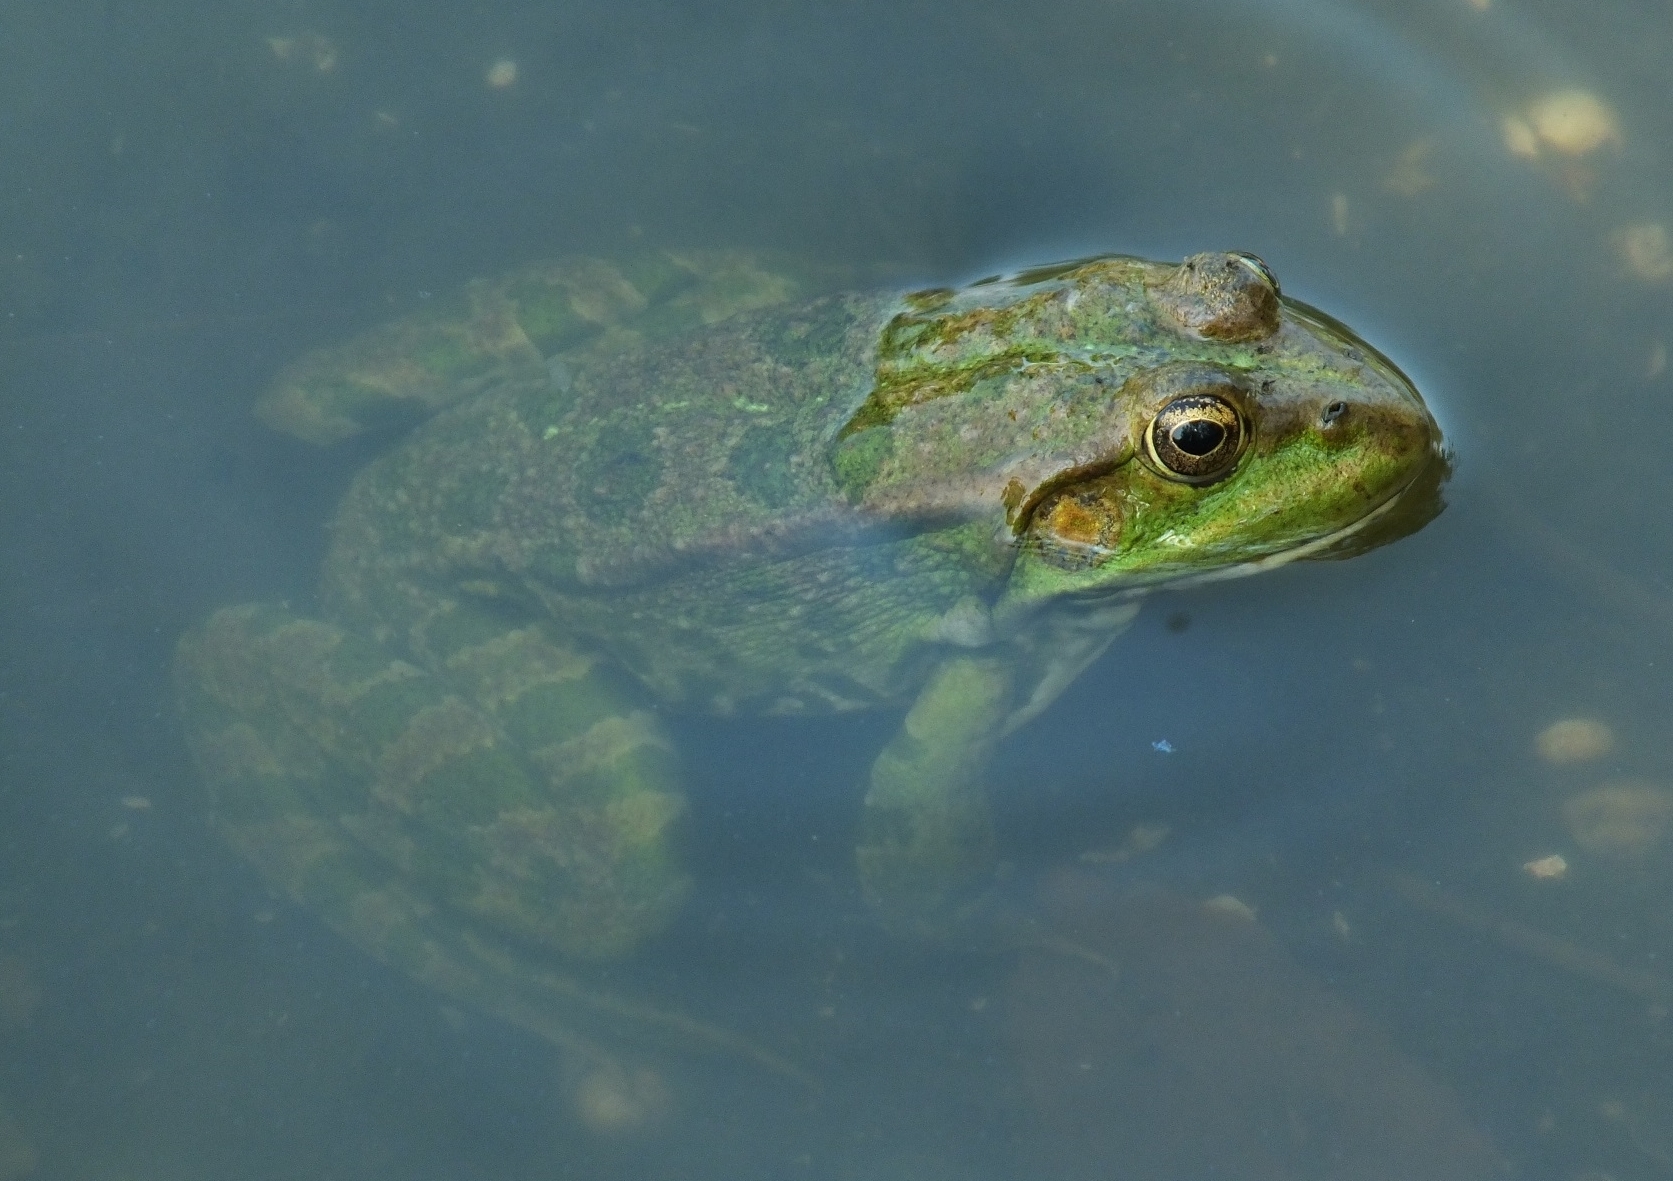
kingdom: Animalia
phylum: Chordata
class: Amphibia
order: Anura
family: Ranidae
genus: Pelophylax
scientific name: Pelophylax ridibundus
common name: Marsh frog
